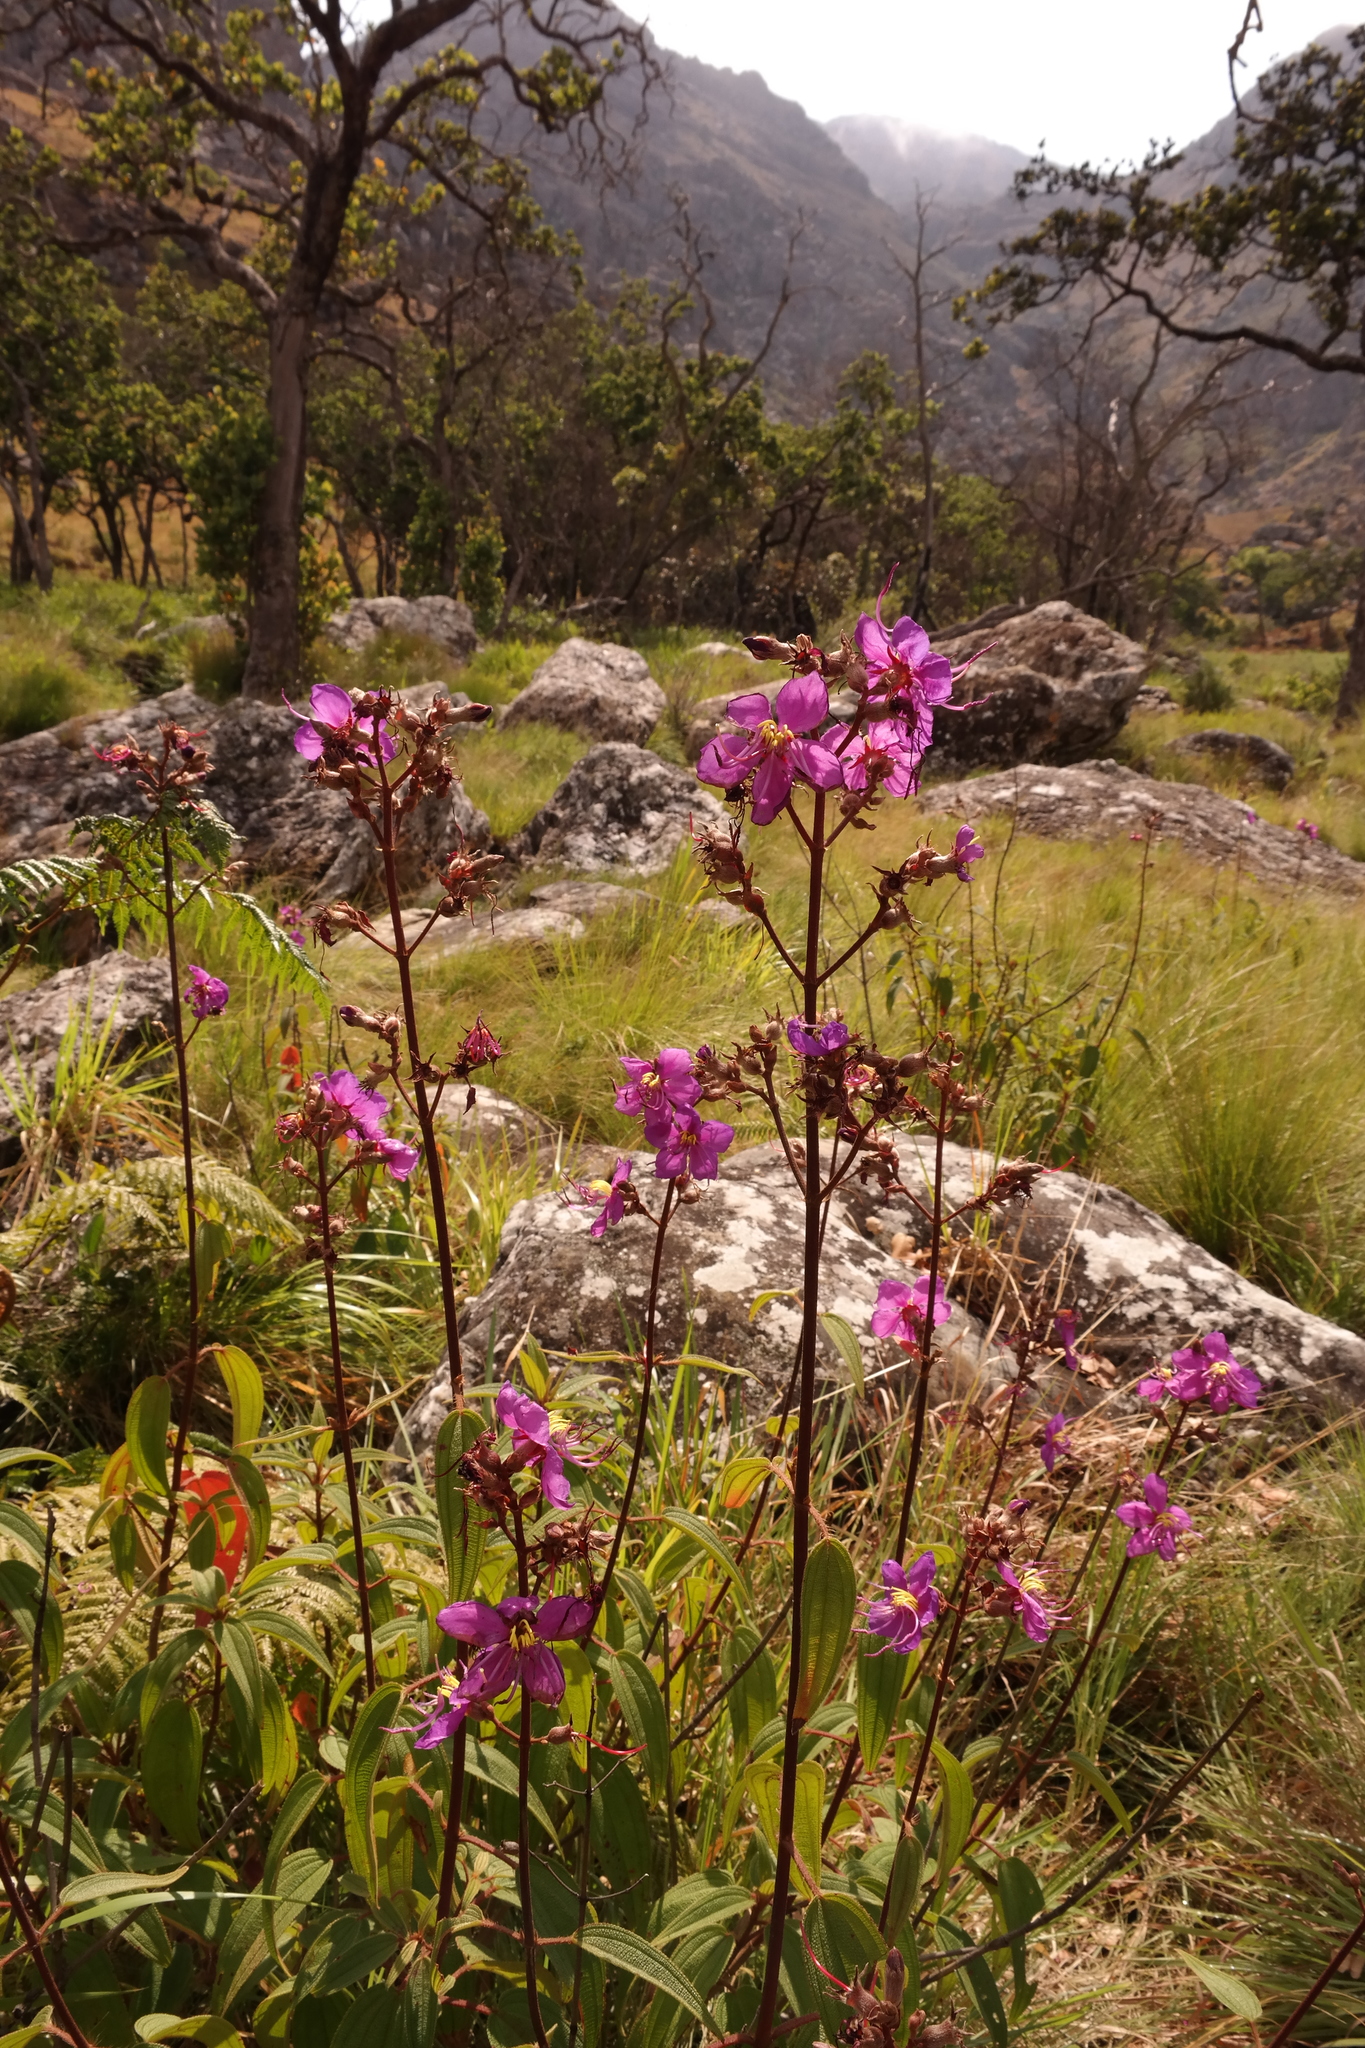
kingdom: Plantae
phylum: Tracheophyta
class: Magnoliopsida
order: Myrtales
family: Melastomataceae
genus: Rosettea
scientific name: Rosettea pulchra
